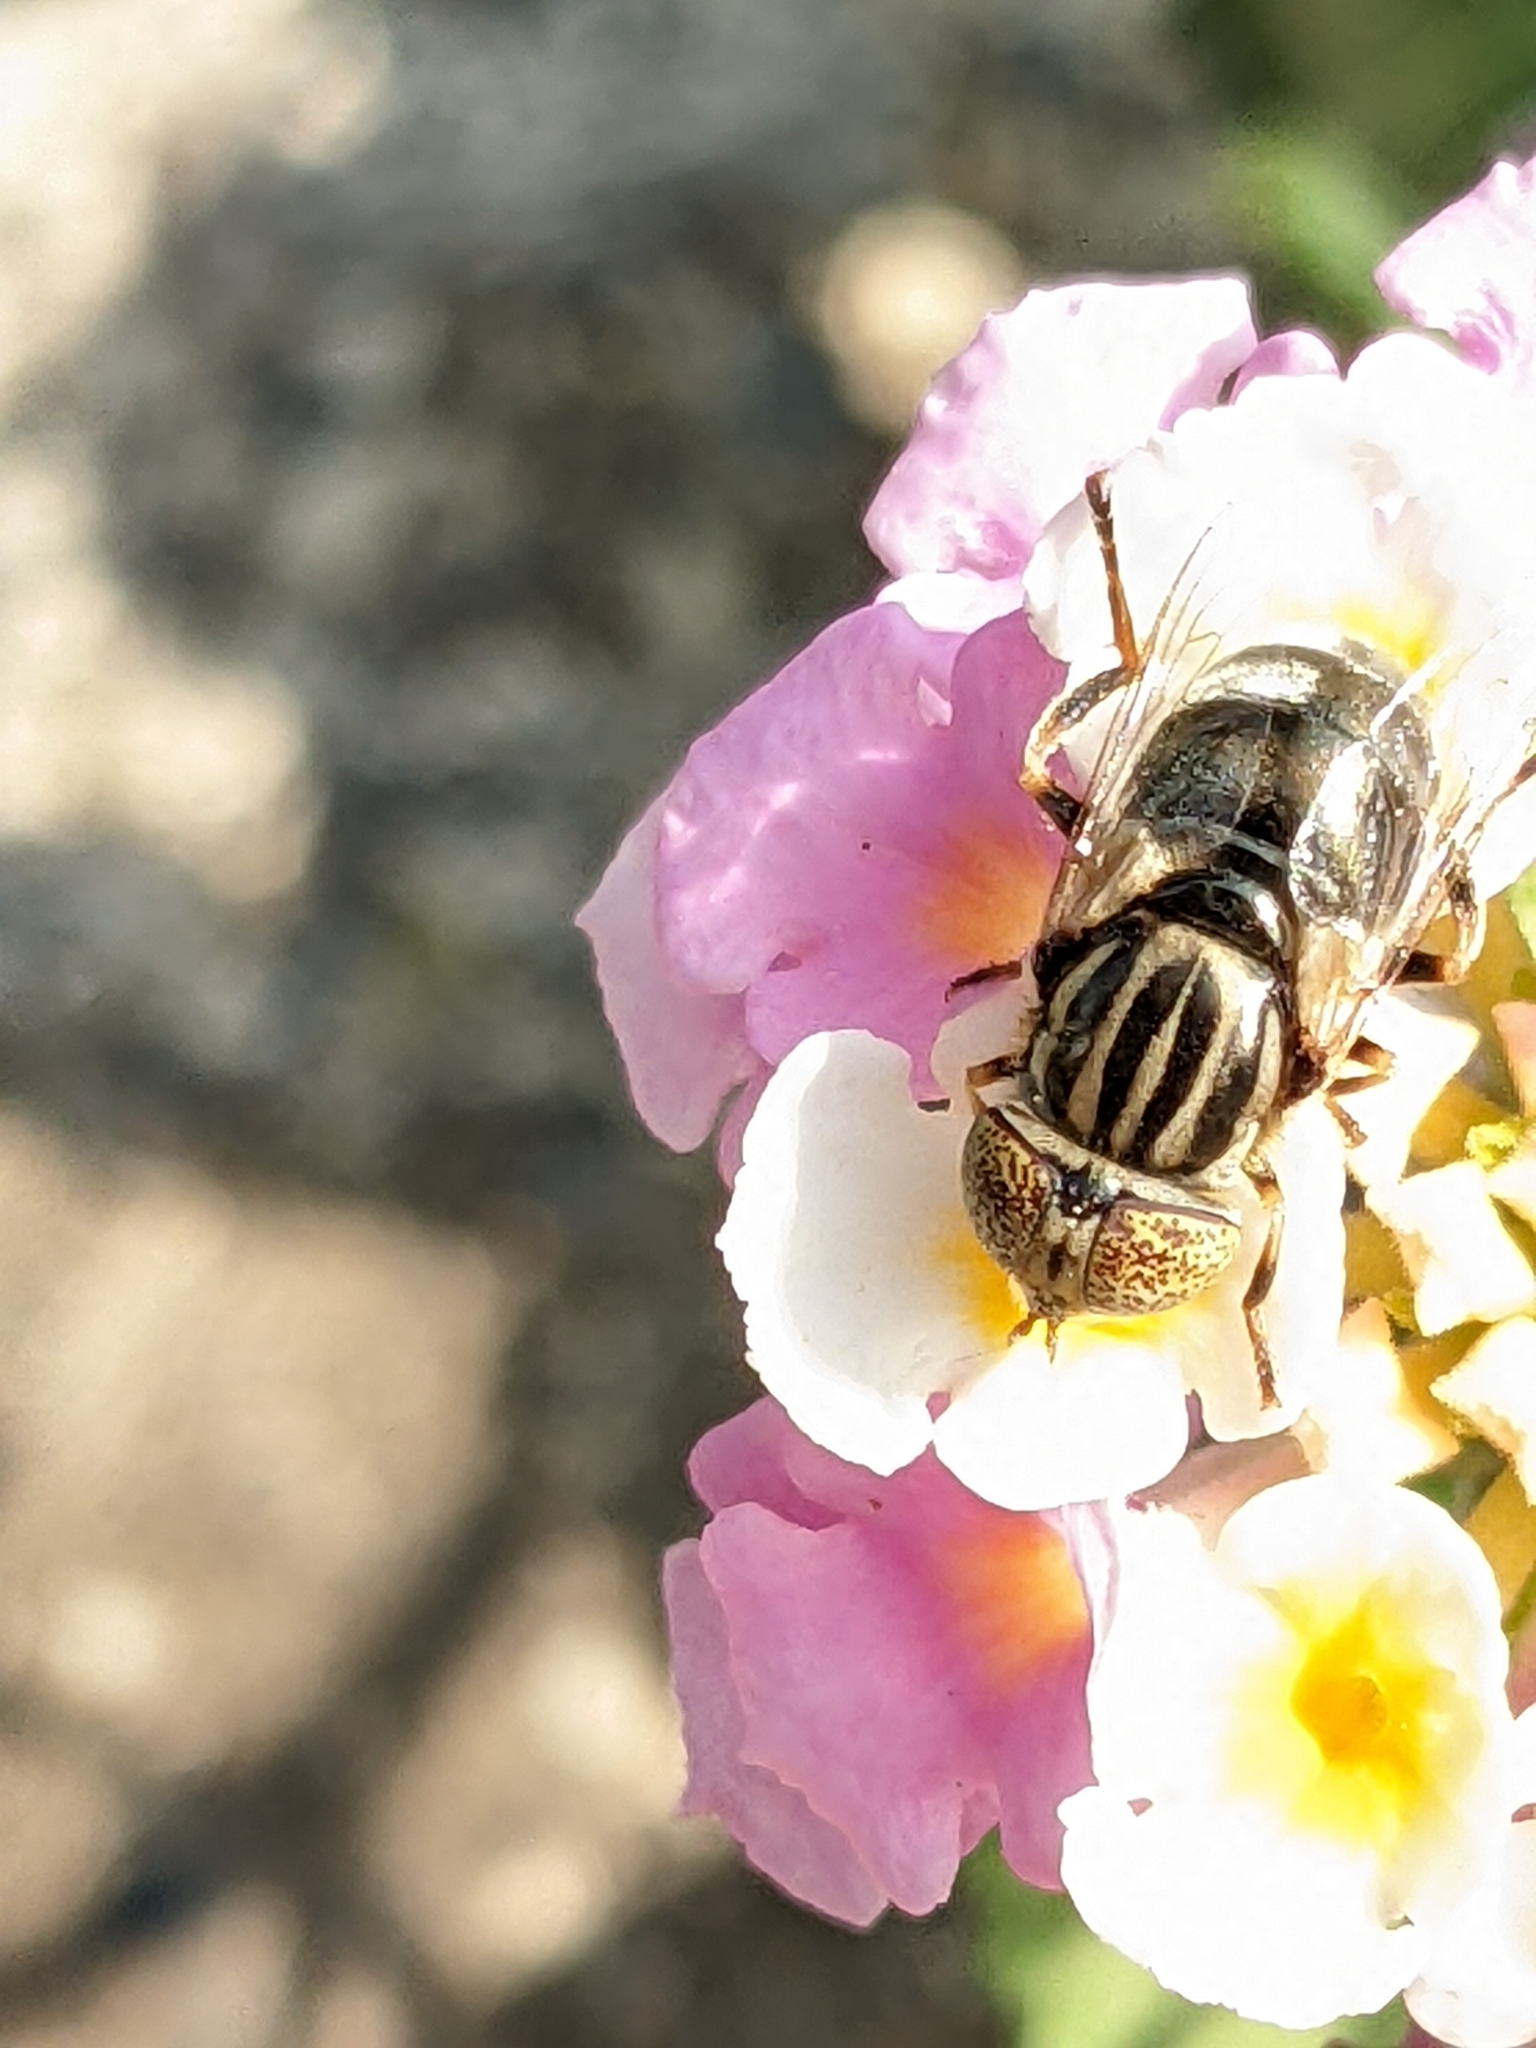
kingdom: Animalia
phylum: Arthropoda
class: Insecta
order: Diptera
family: Syrphidae
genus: Eristalinus
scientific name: Eristalinus aeneus
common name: Syrphid fly
